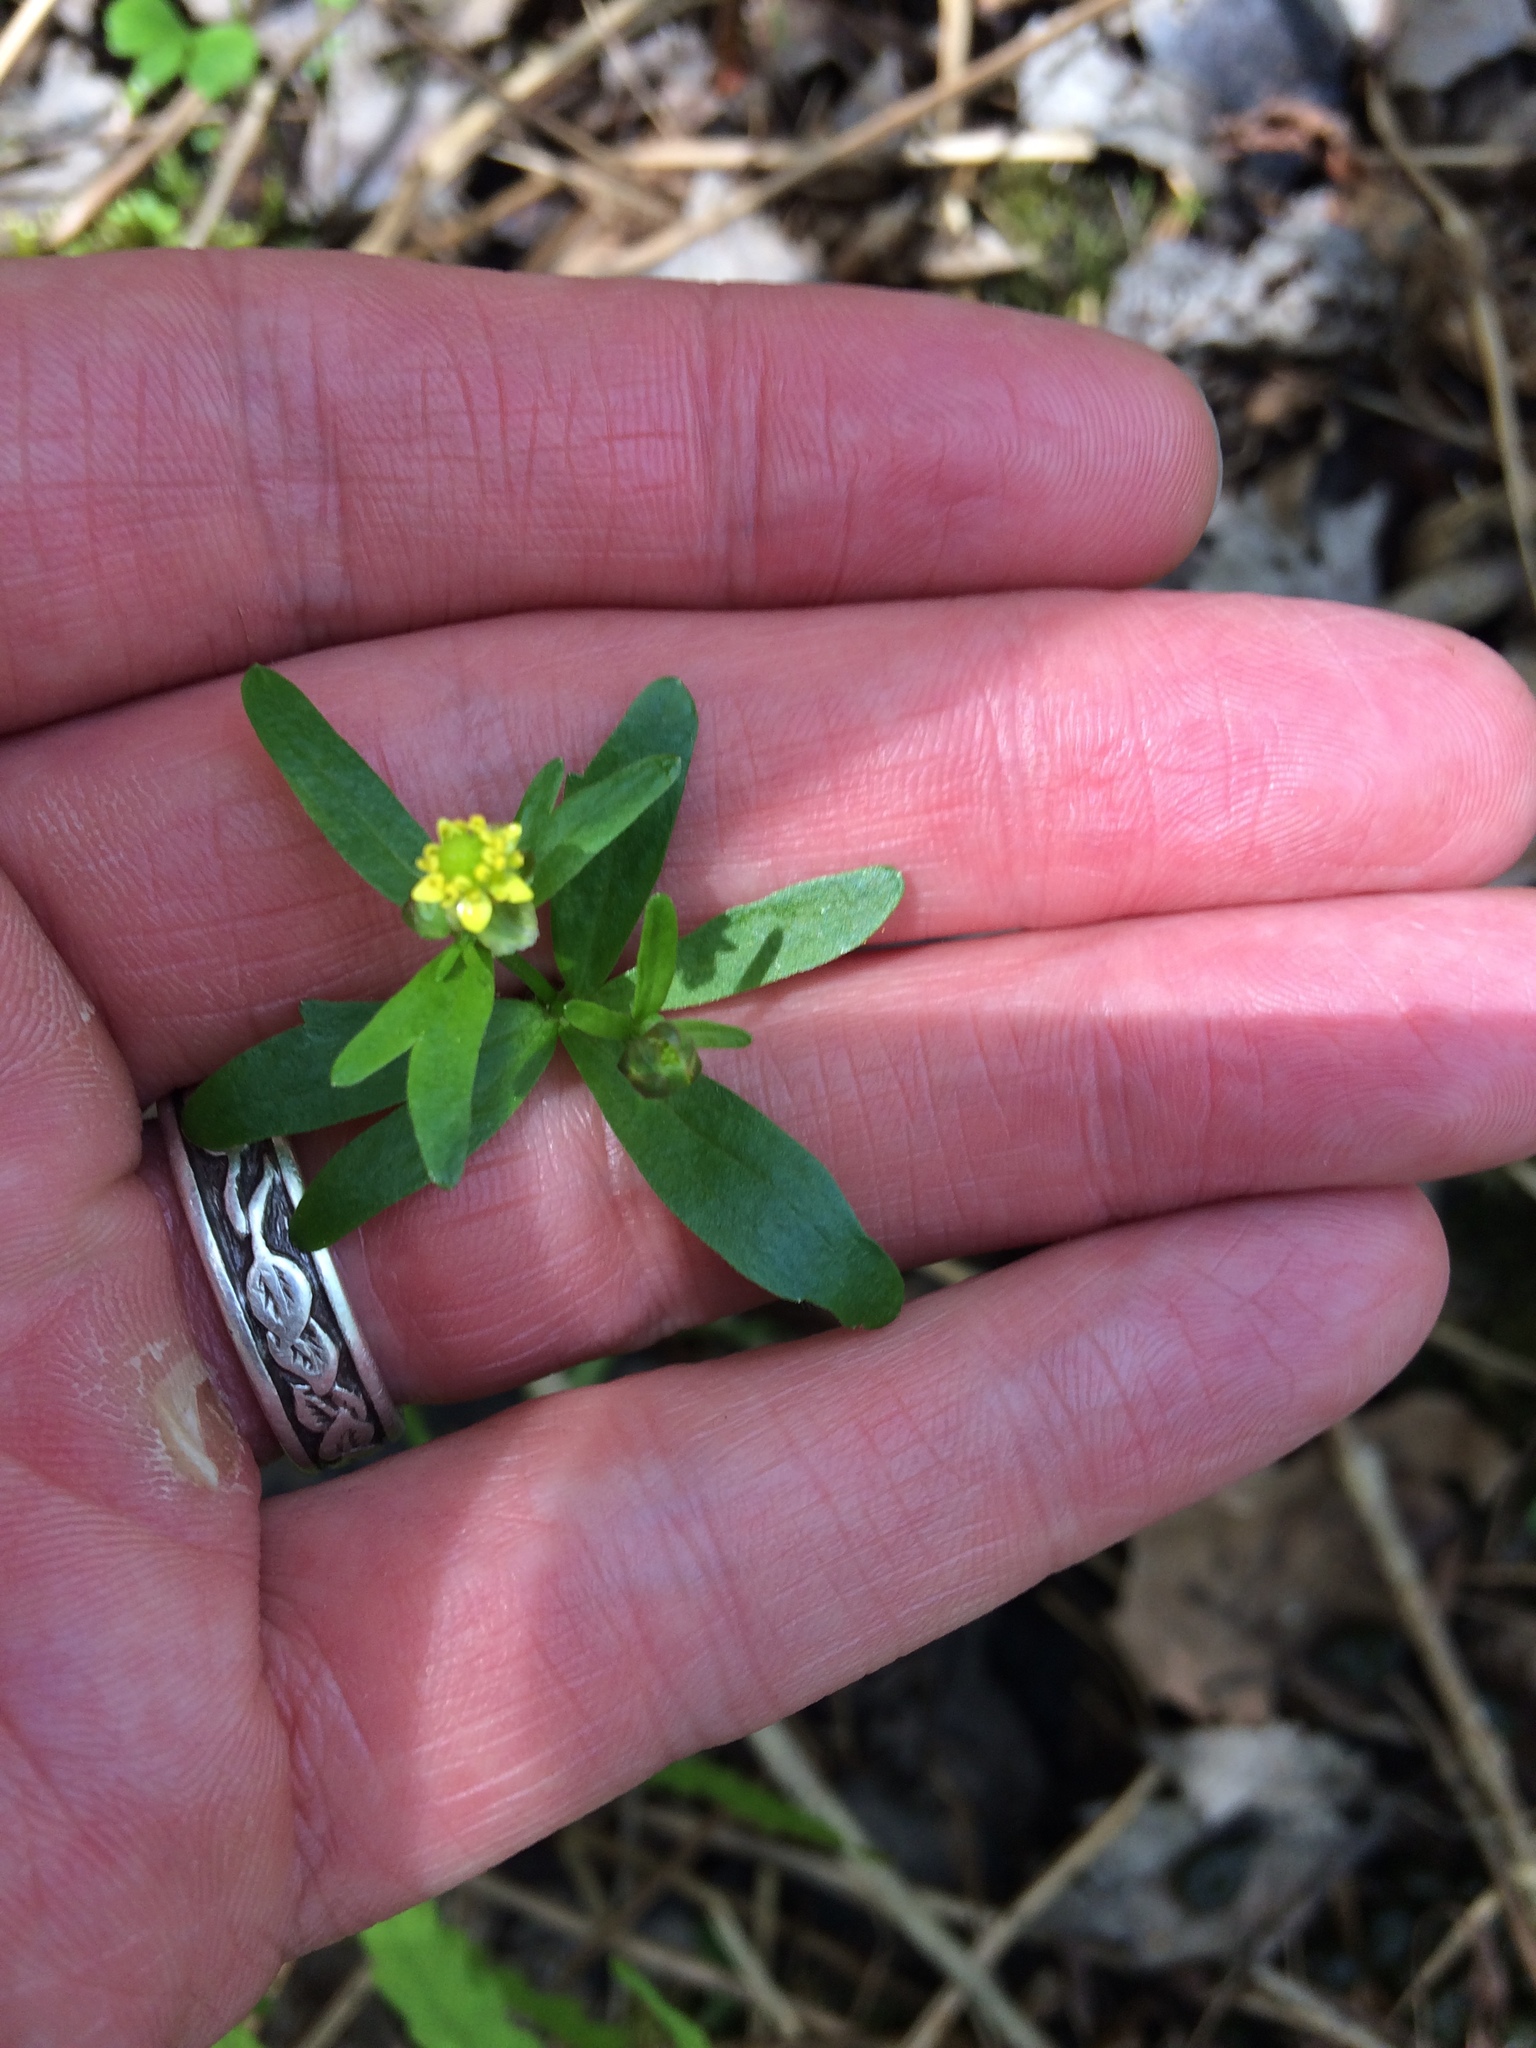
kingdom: Plantae
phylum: Tracheophyta
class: Magnoliopsida
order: Ranunculales
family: Ranunculaceae
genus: Ranunculus
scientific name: Ranunculus abortivus
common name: Early wood buttercup
